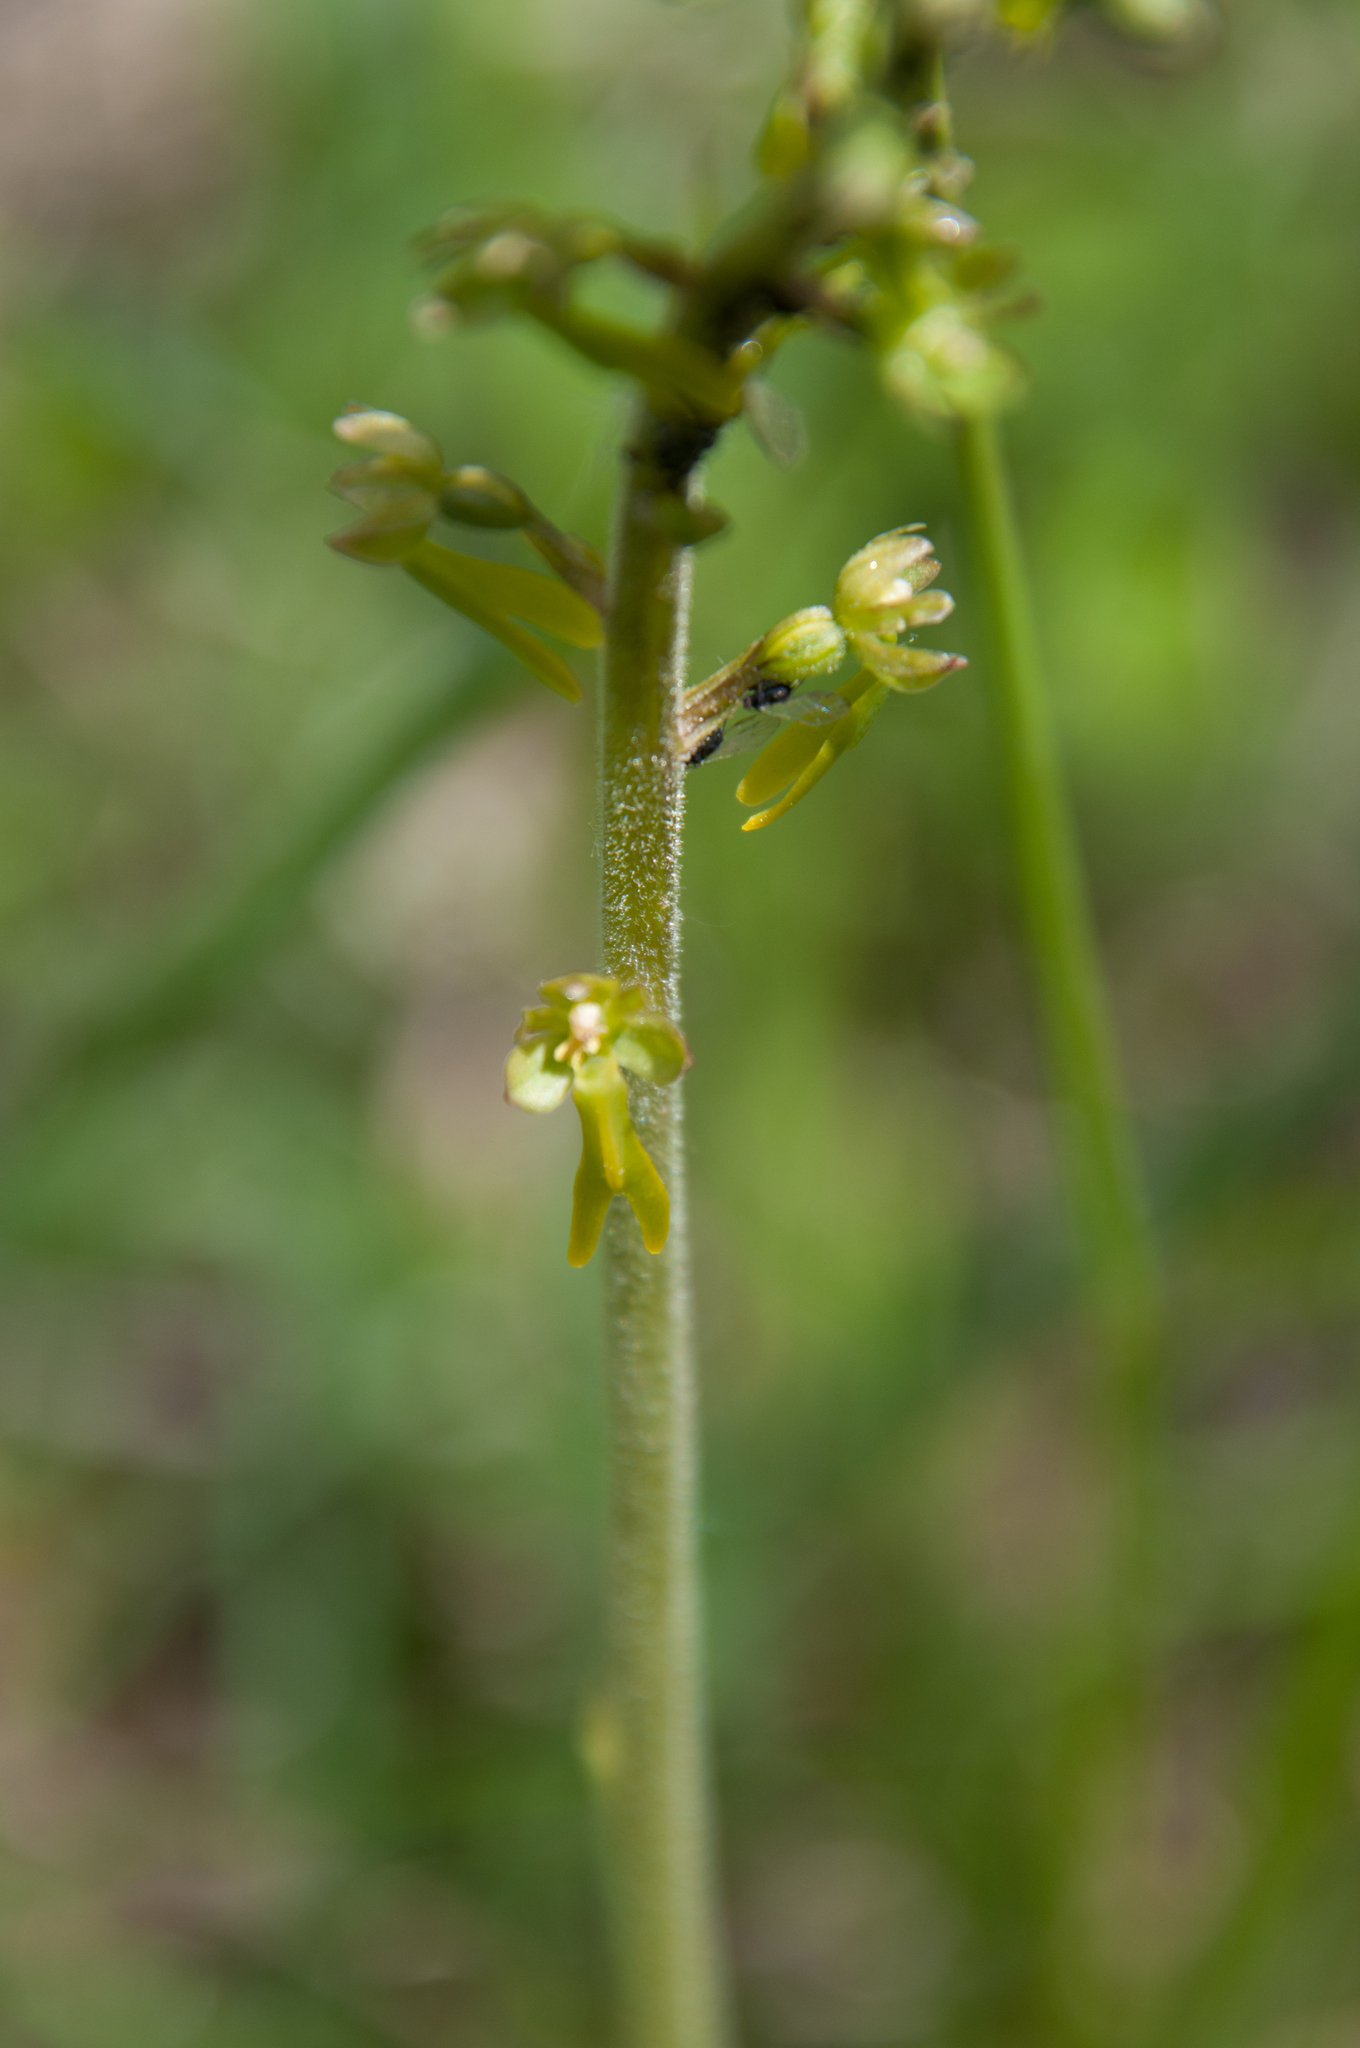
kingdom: Plantae
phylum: Tracheophyta
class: Liliopsida
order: Asparagales
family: Orchidaceae
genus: Neottia
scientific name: Neottia ovata
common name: Common twayblade
